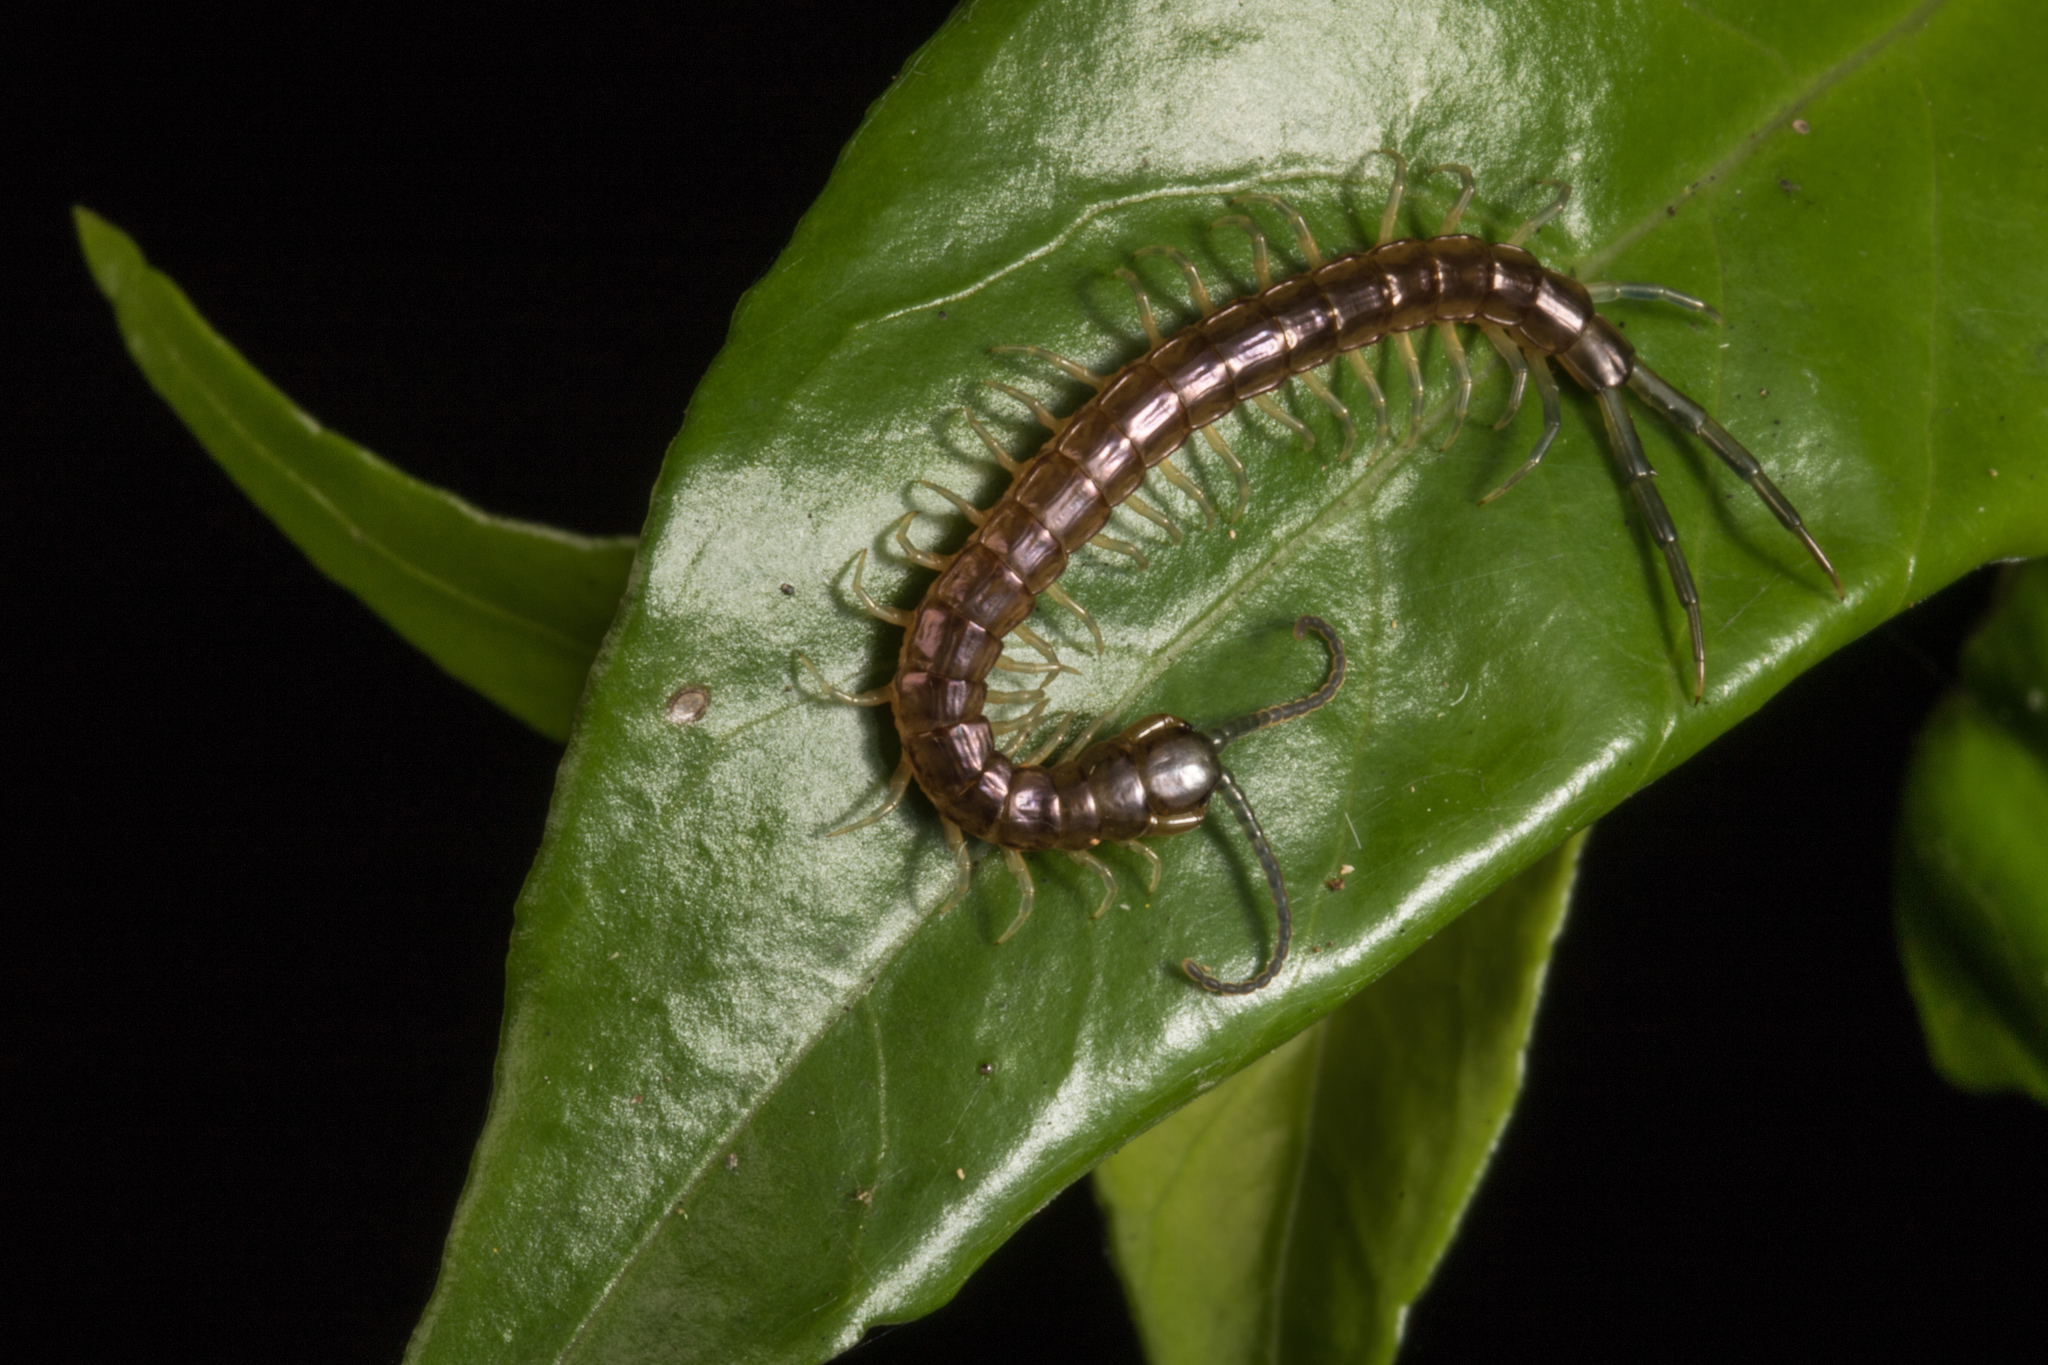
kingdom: Animalia
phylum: Arthropoda
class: Chilopoda
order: Scolopendromorpha
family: Scolopendridae
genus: Cormocephalus
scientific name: Cormocephalus rubriceps
